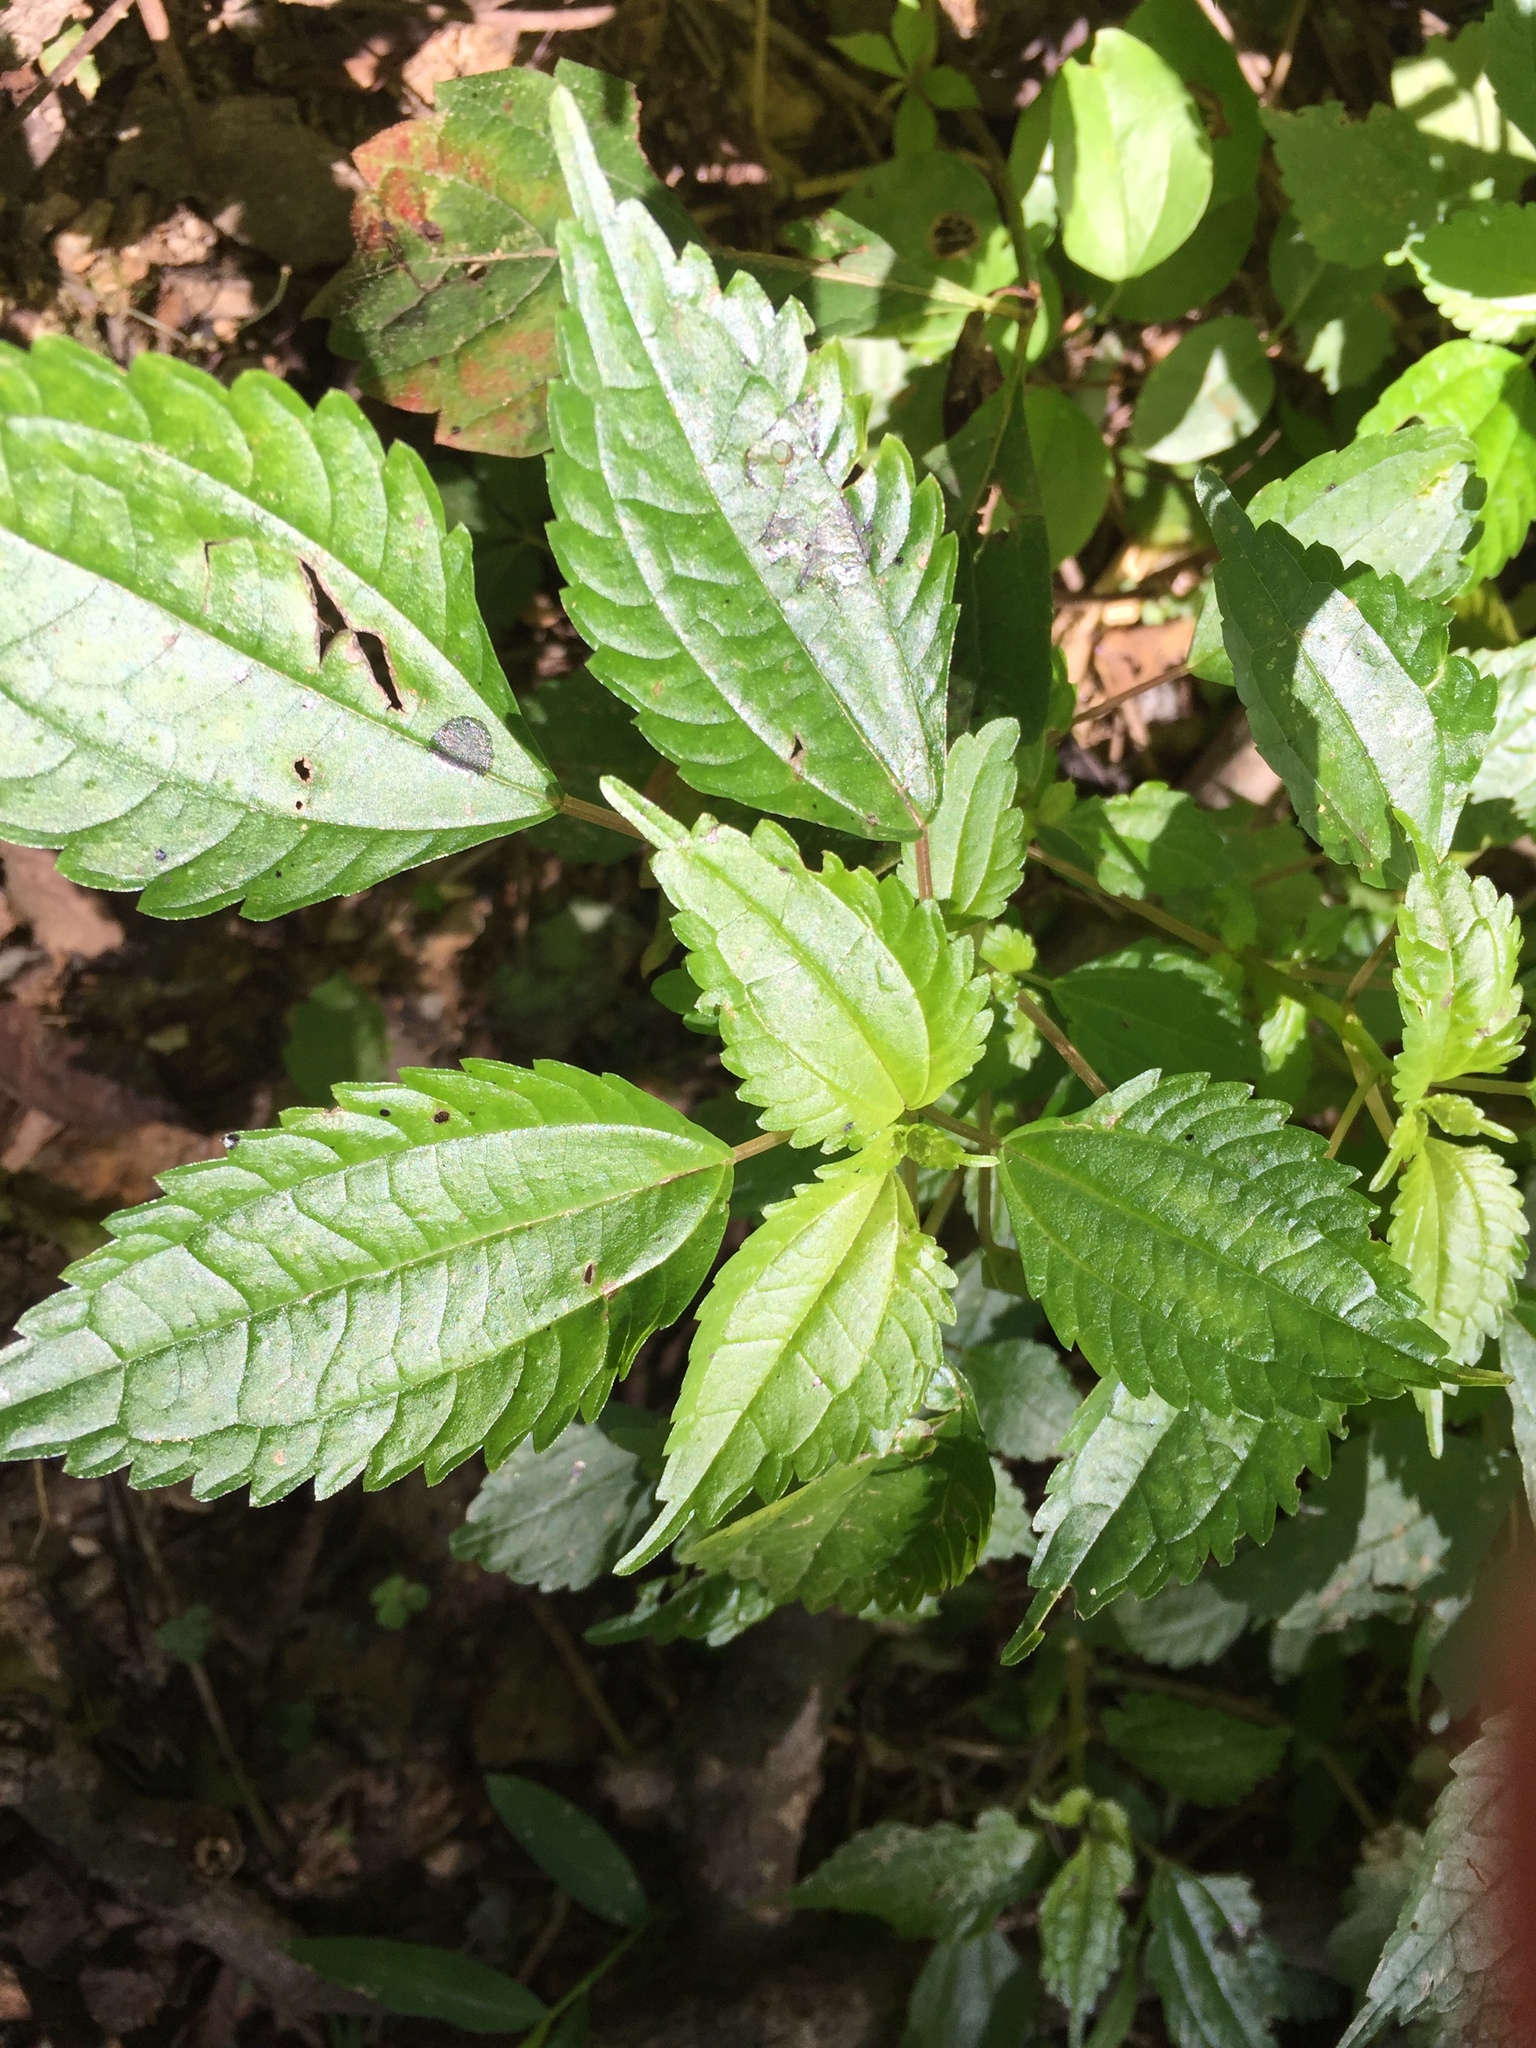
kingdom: Plantae
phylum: Tracheophyta
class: Magnoliopsida
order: Rosales
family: Urticaceae
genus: Pilea
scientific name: Pilea pumila
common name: Clearweed
